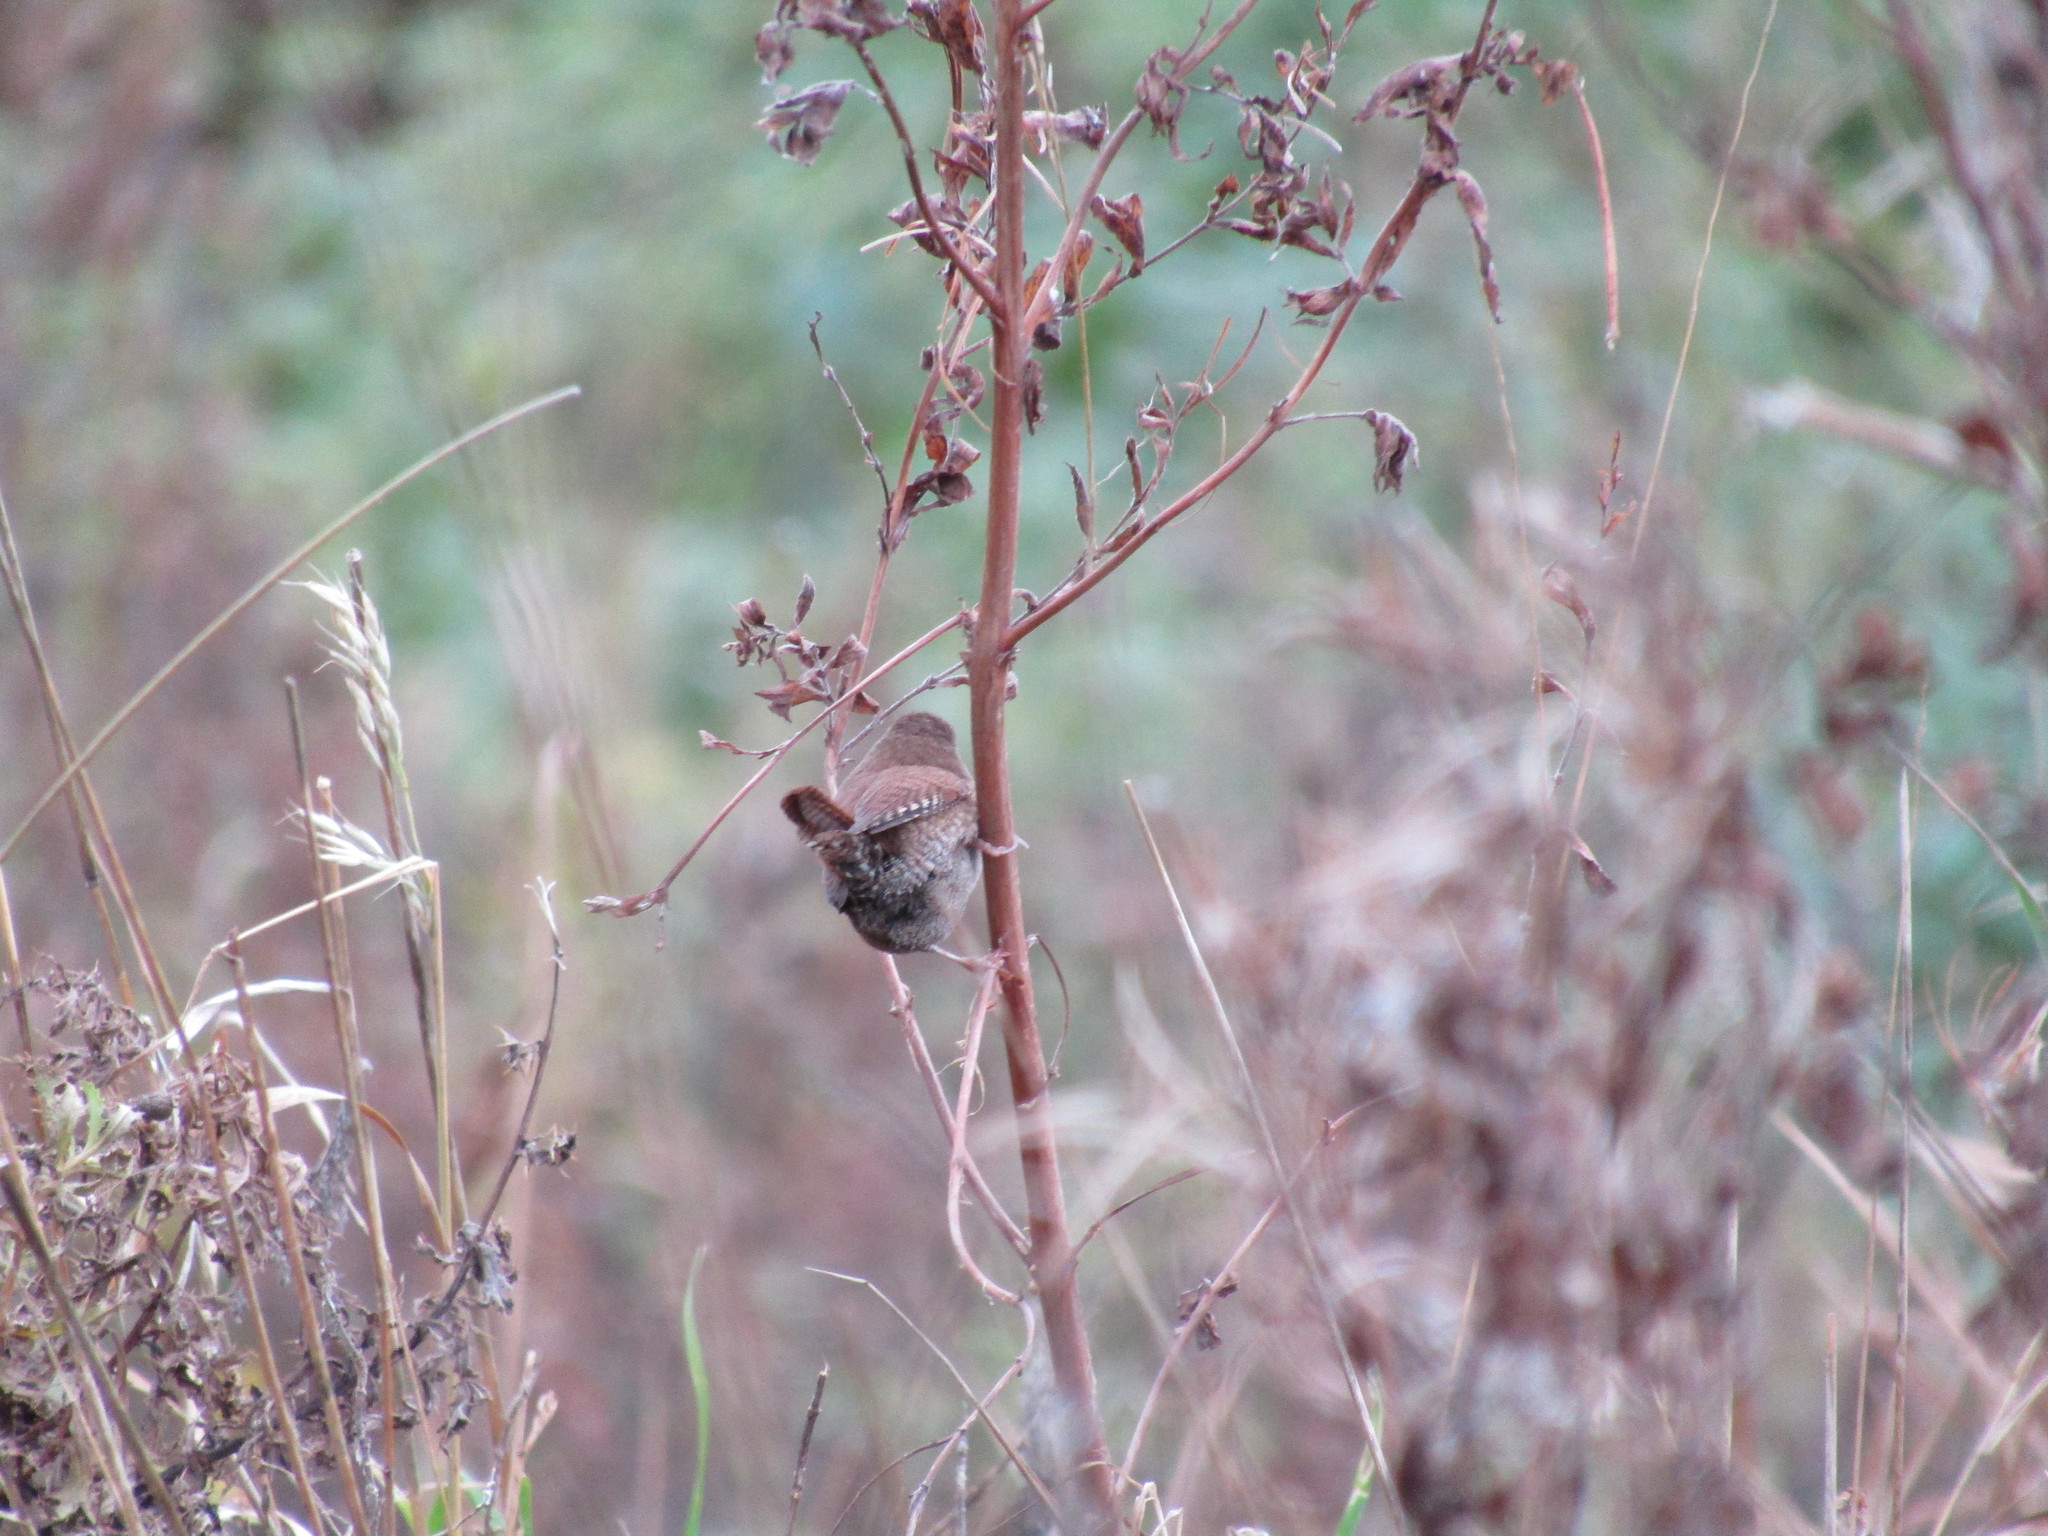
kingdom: Animalia
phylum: Chordata
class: Aves
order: Passeriformes
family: Troglodytidae
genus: Troglodytes
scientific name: Troglodytes troglodytes
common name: Eurasian wren
